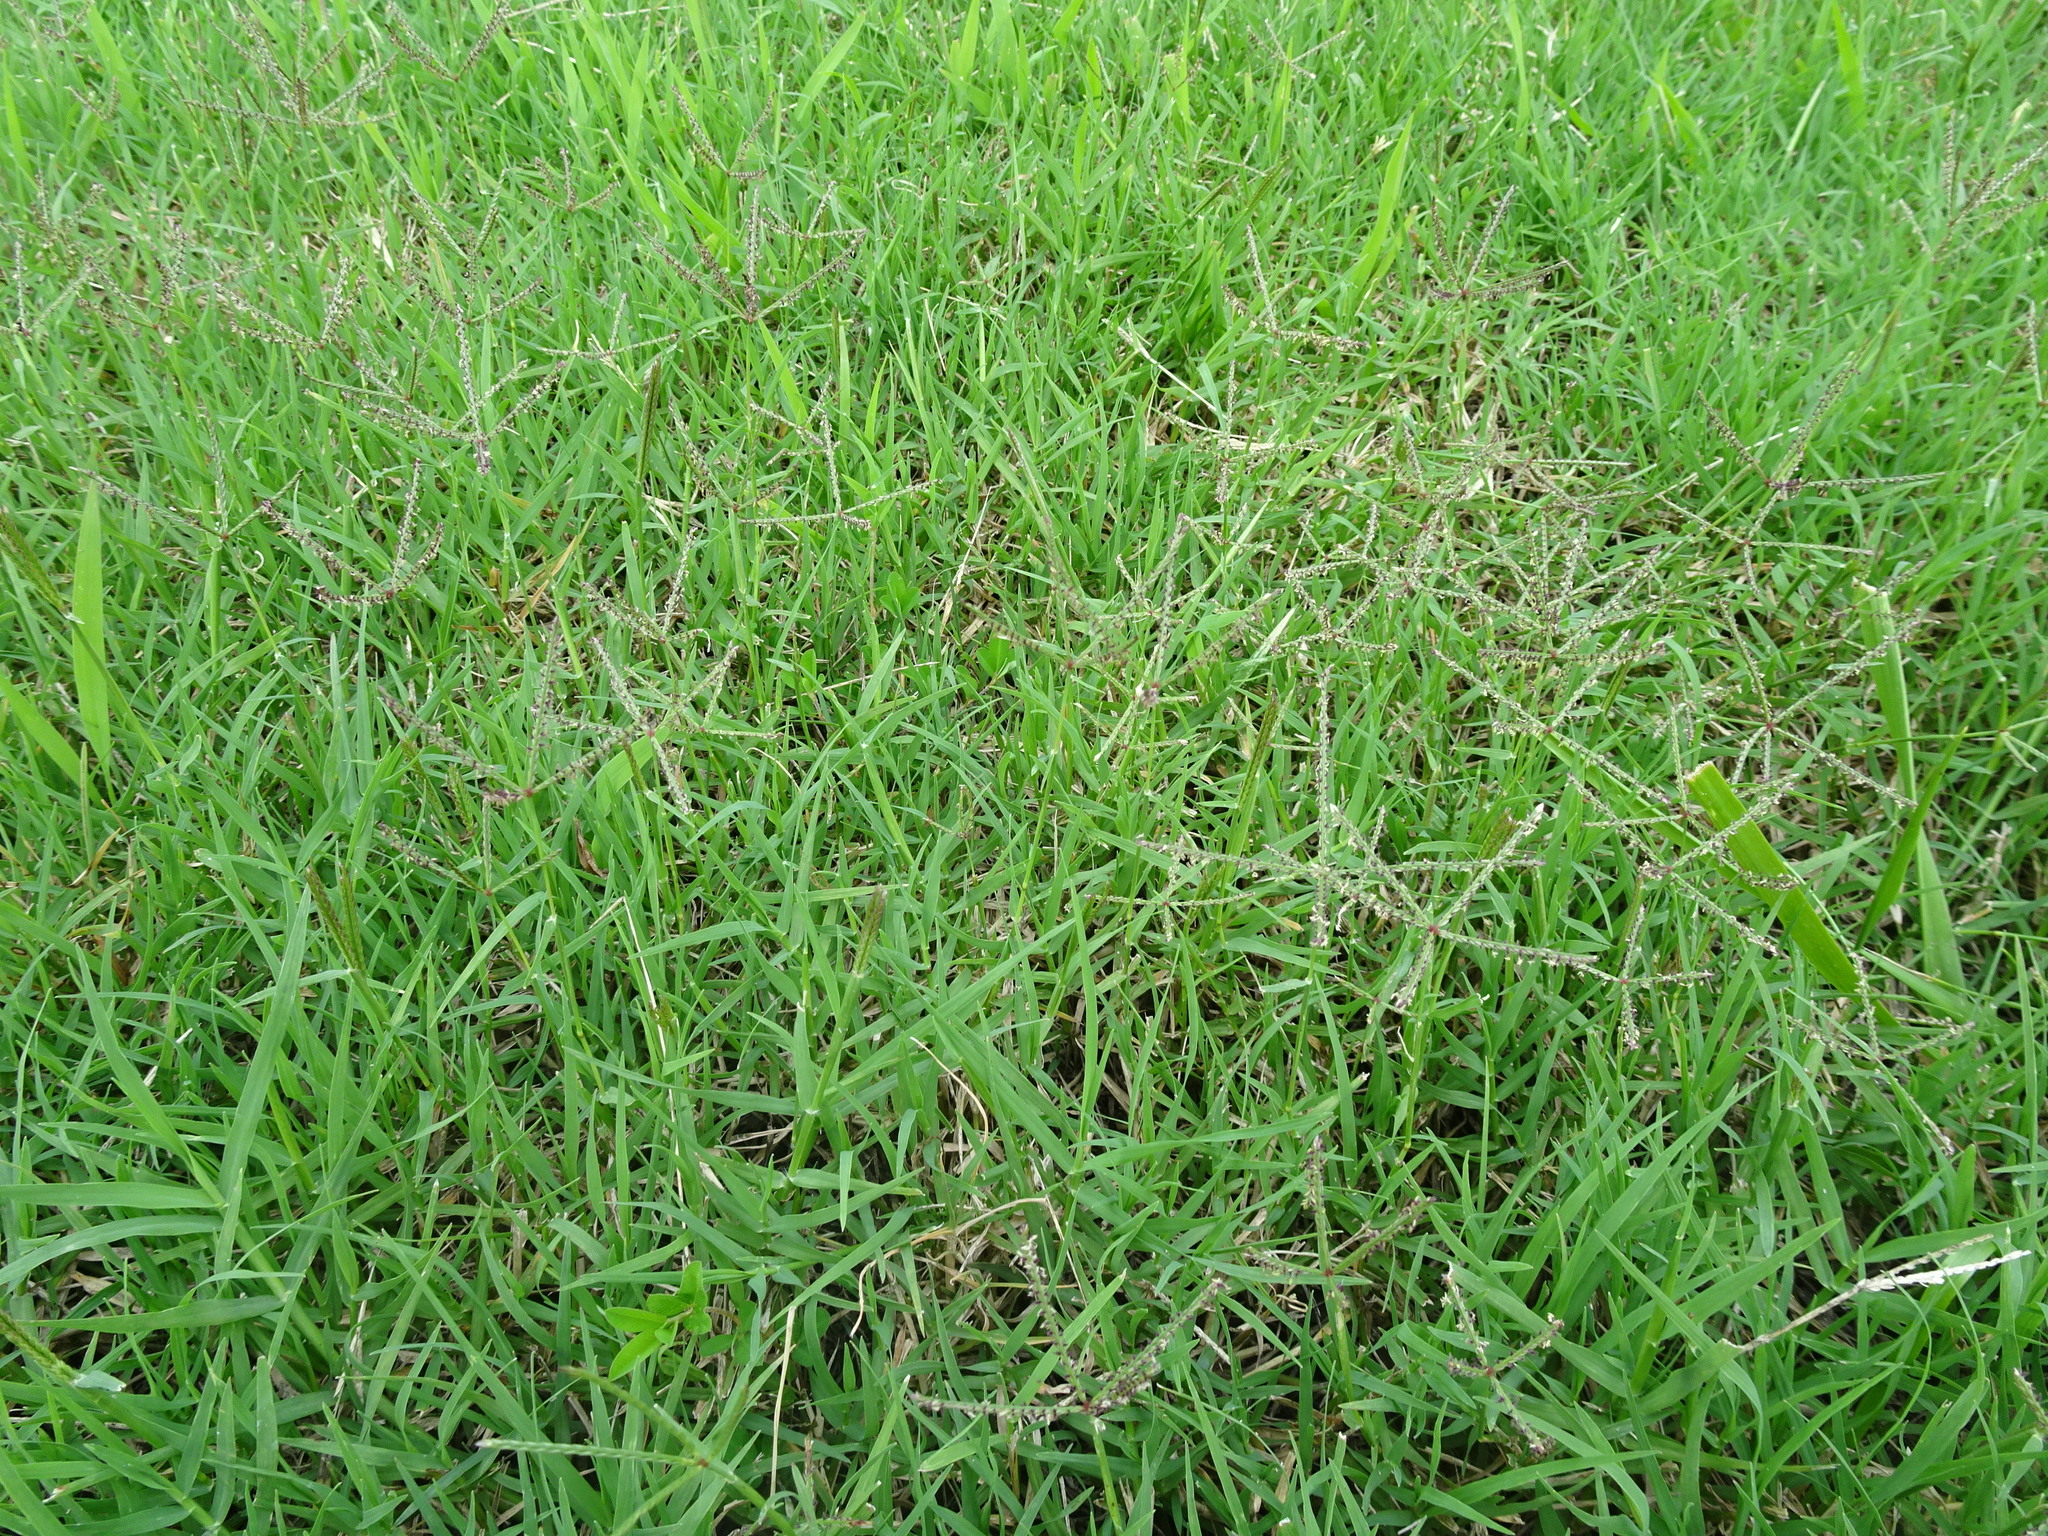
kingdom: Plantae
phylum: Tracheophyta
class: Liliopsida
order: Poales
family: Poaceae
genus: Cynodon
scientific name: Cynodon dactylon
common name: Bermuda grass
